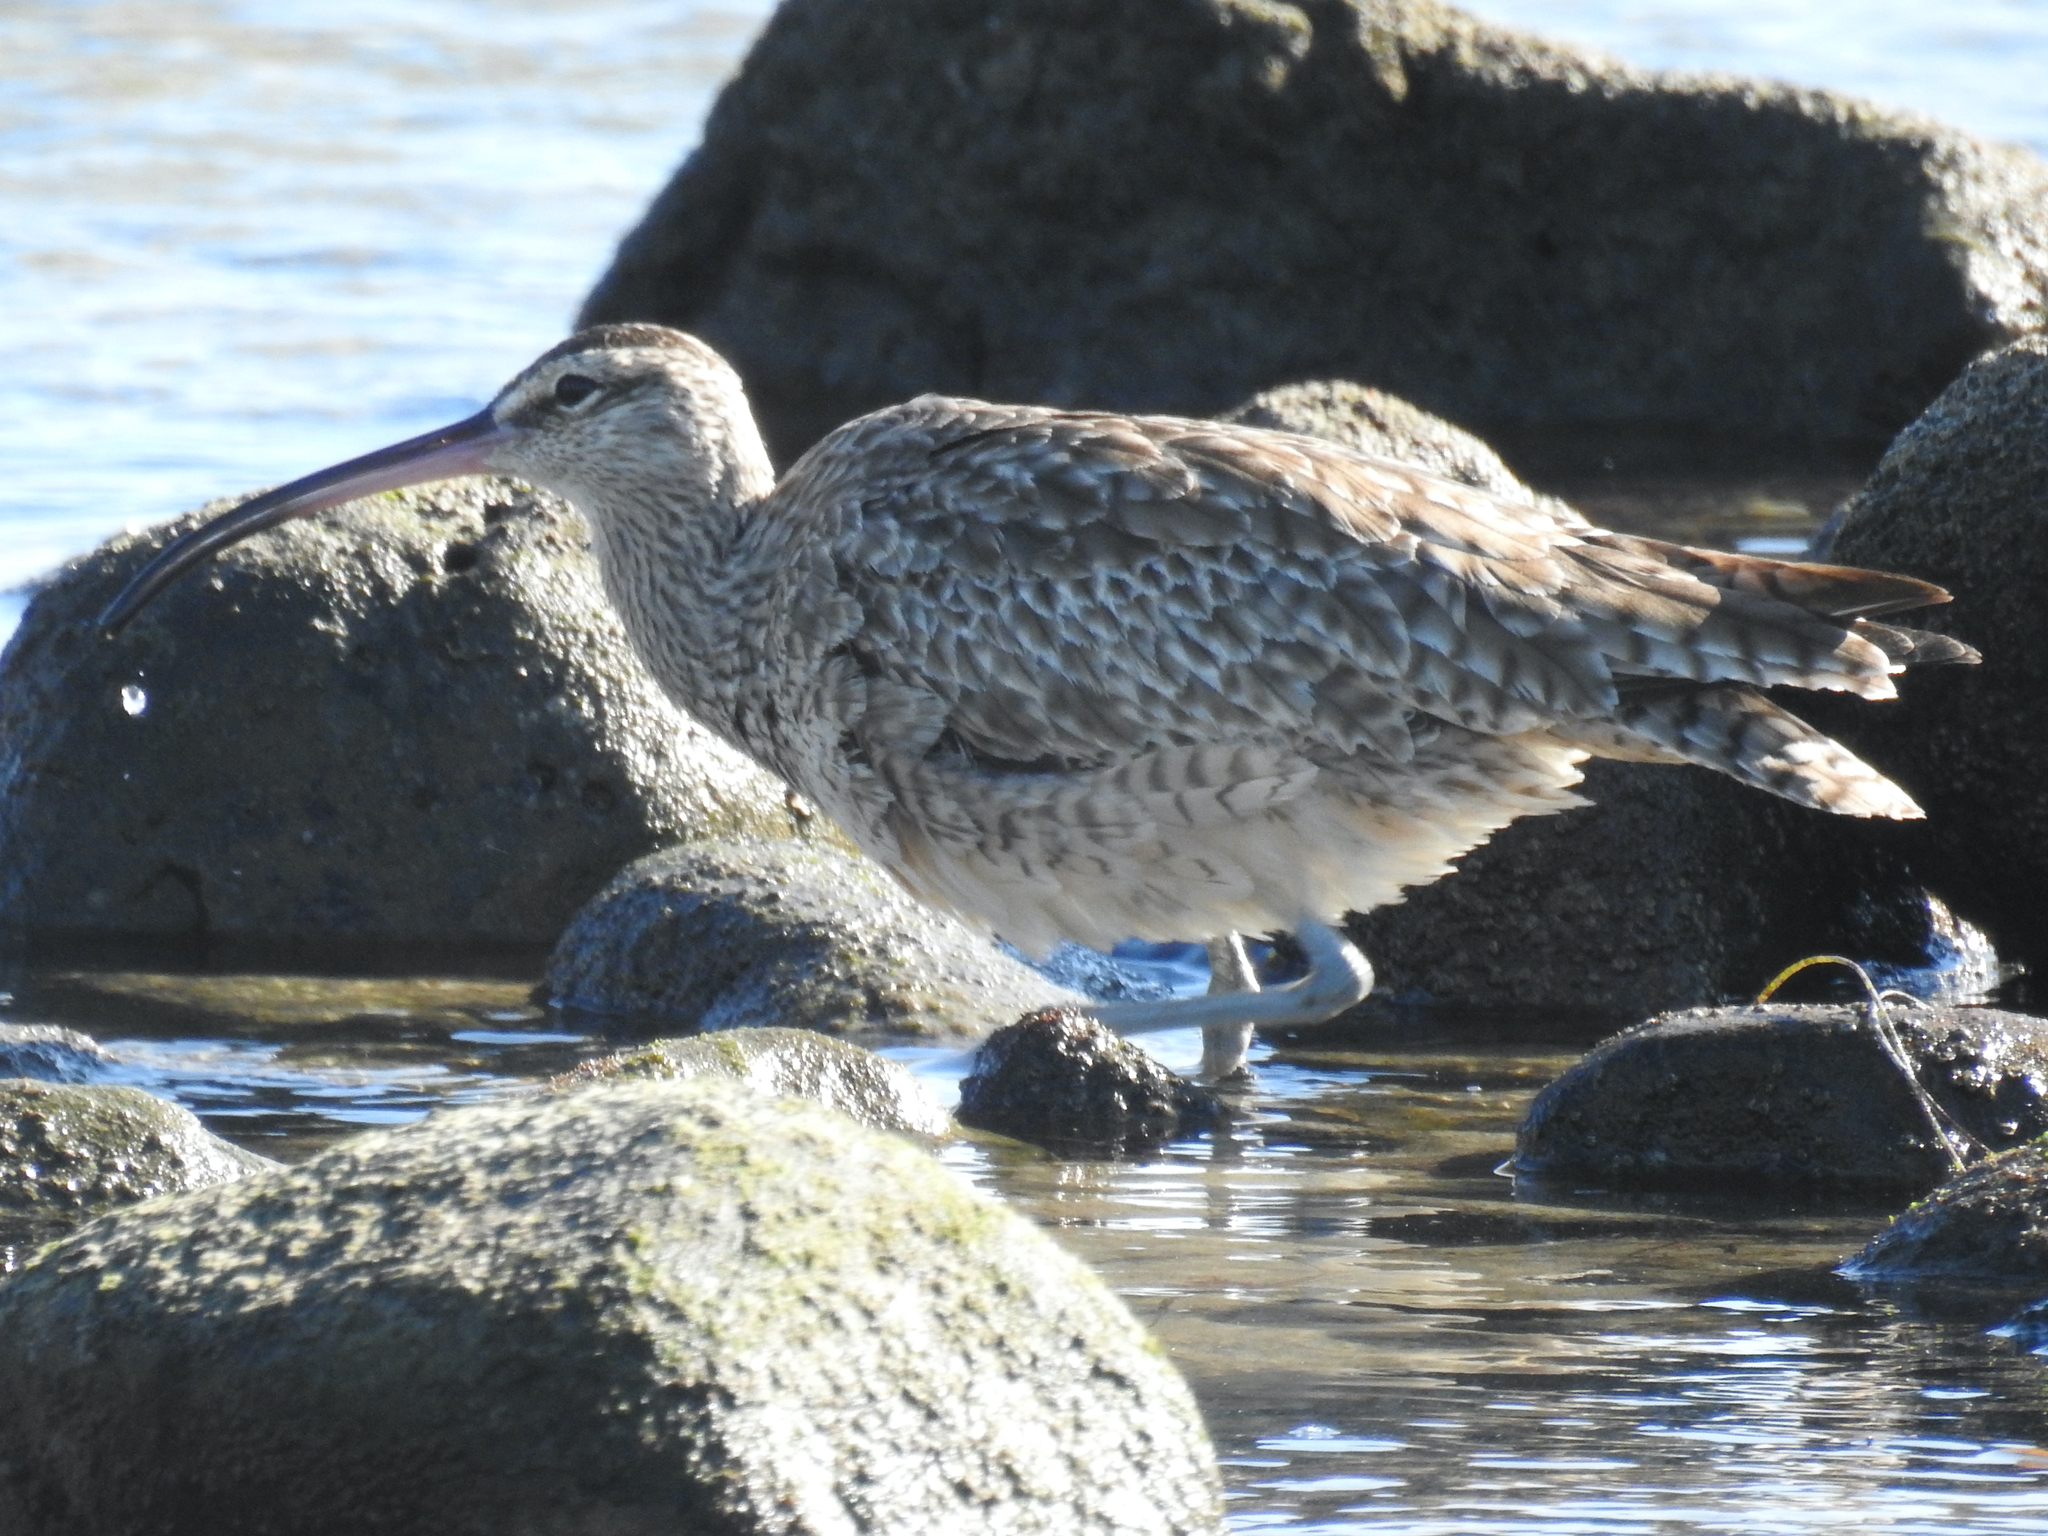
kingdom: Animalia
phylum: Chordata
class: Aves
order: Charadriiformes
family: Scolopacidae
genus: Numenius
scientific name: Numenius phaeopus
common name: Whimbrel
